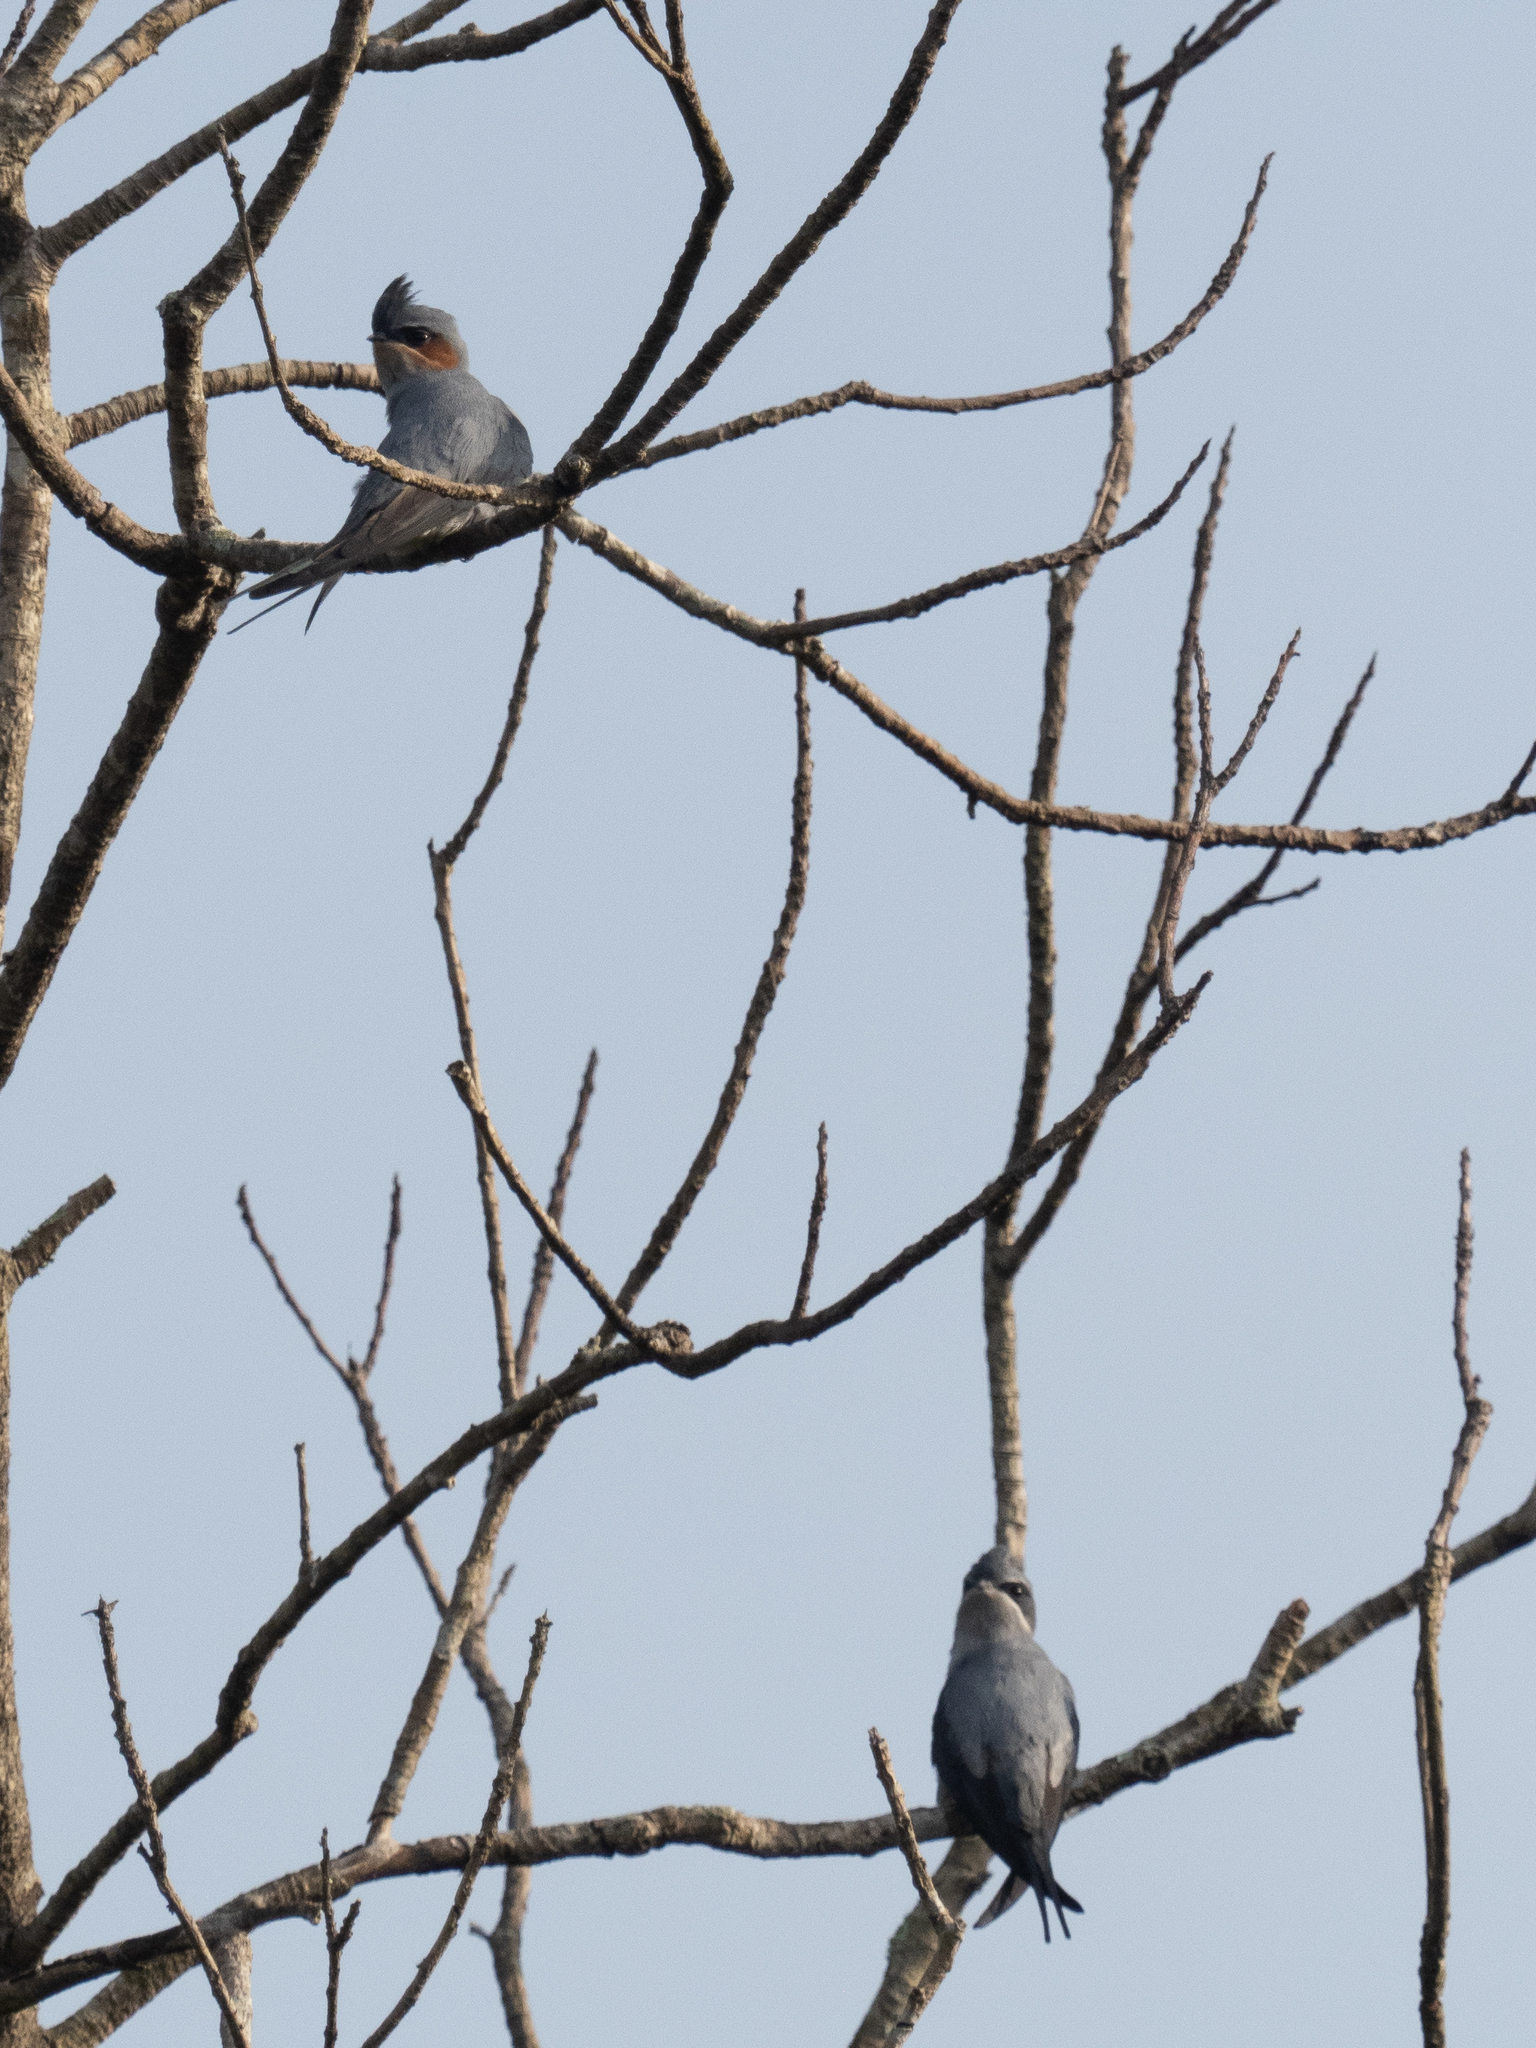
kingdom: Animalia
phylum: Chordata
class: Aves
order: Apodiformes
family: Hemiprocnidae
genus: Hemiprocne
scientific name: Hemiprocne coronata
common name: Crested treeswift
